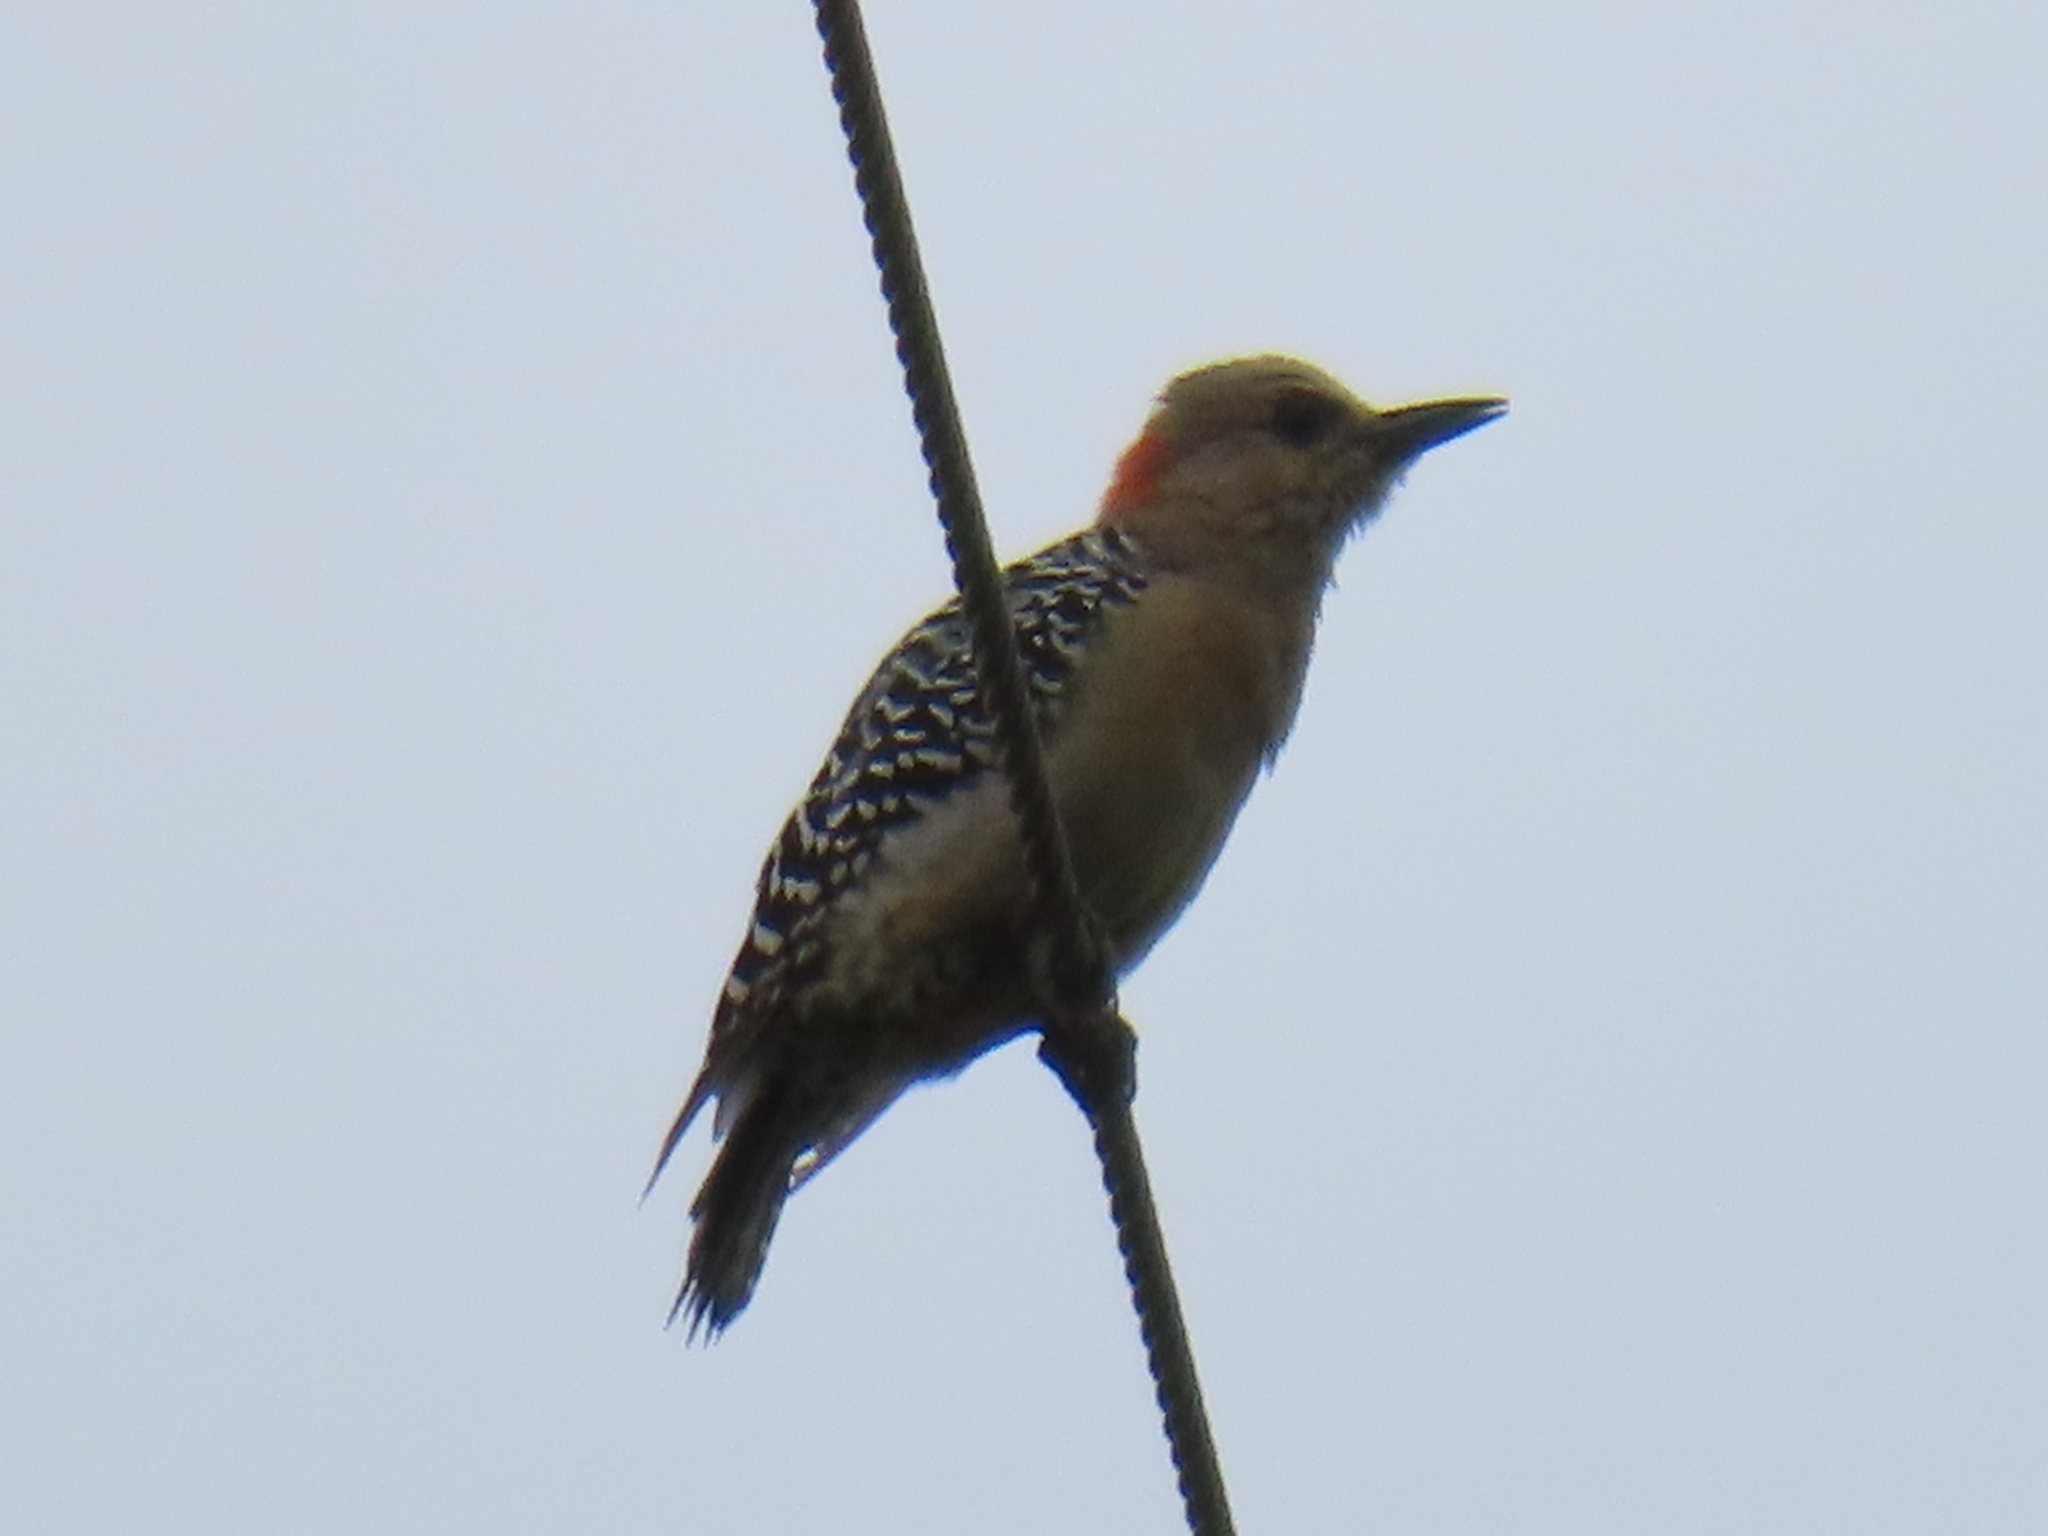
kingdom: Animalia
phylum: Chordata
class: Aves
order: Piciformes
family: Picidae
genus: Melanerpes
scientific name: Melanerpes rubricapillus
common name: Red-crowned woodpecker
